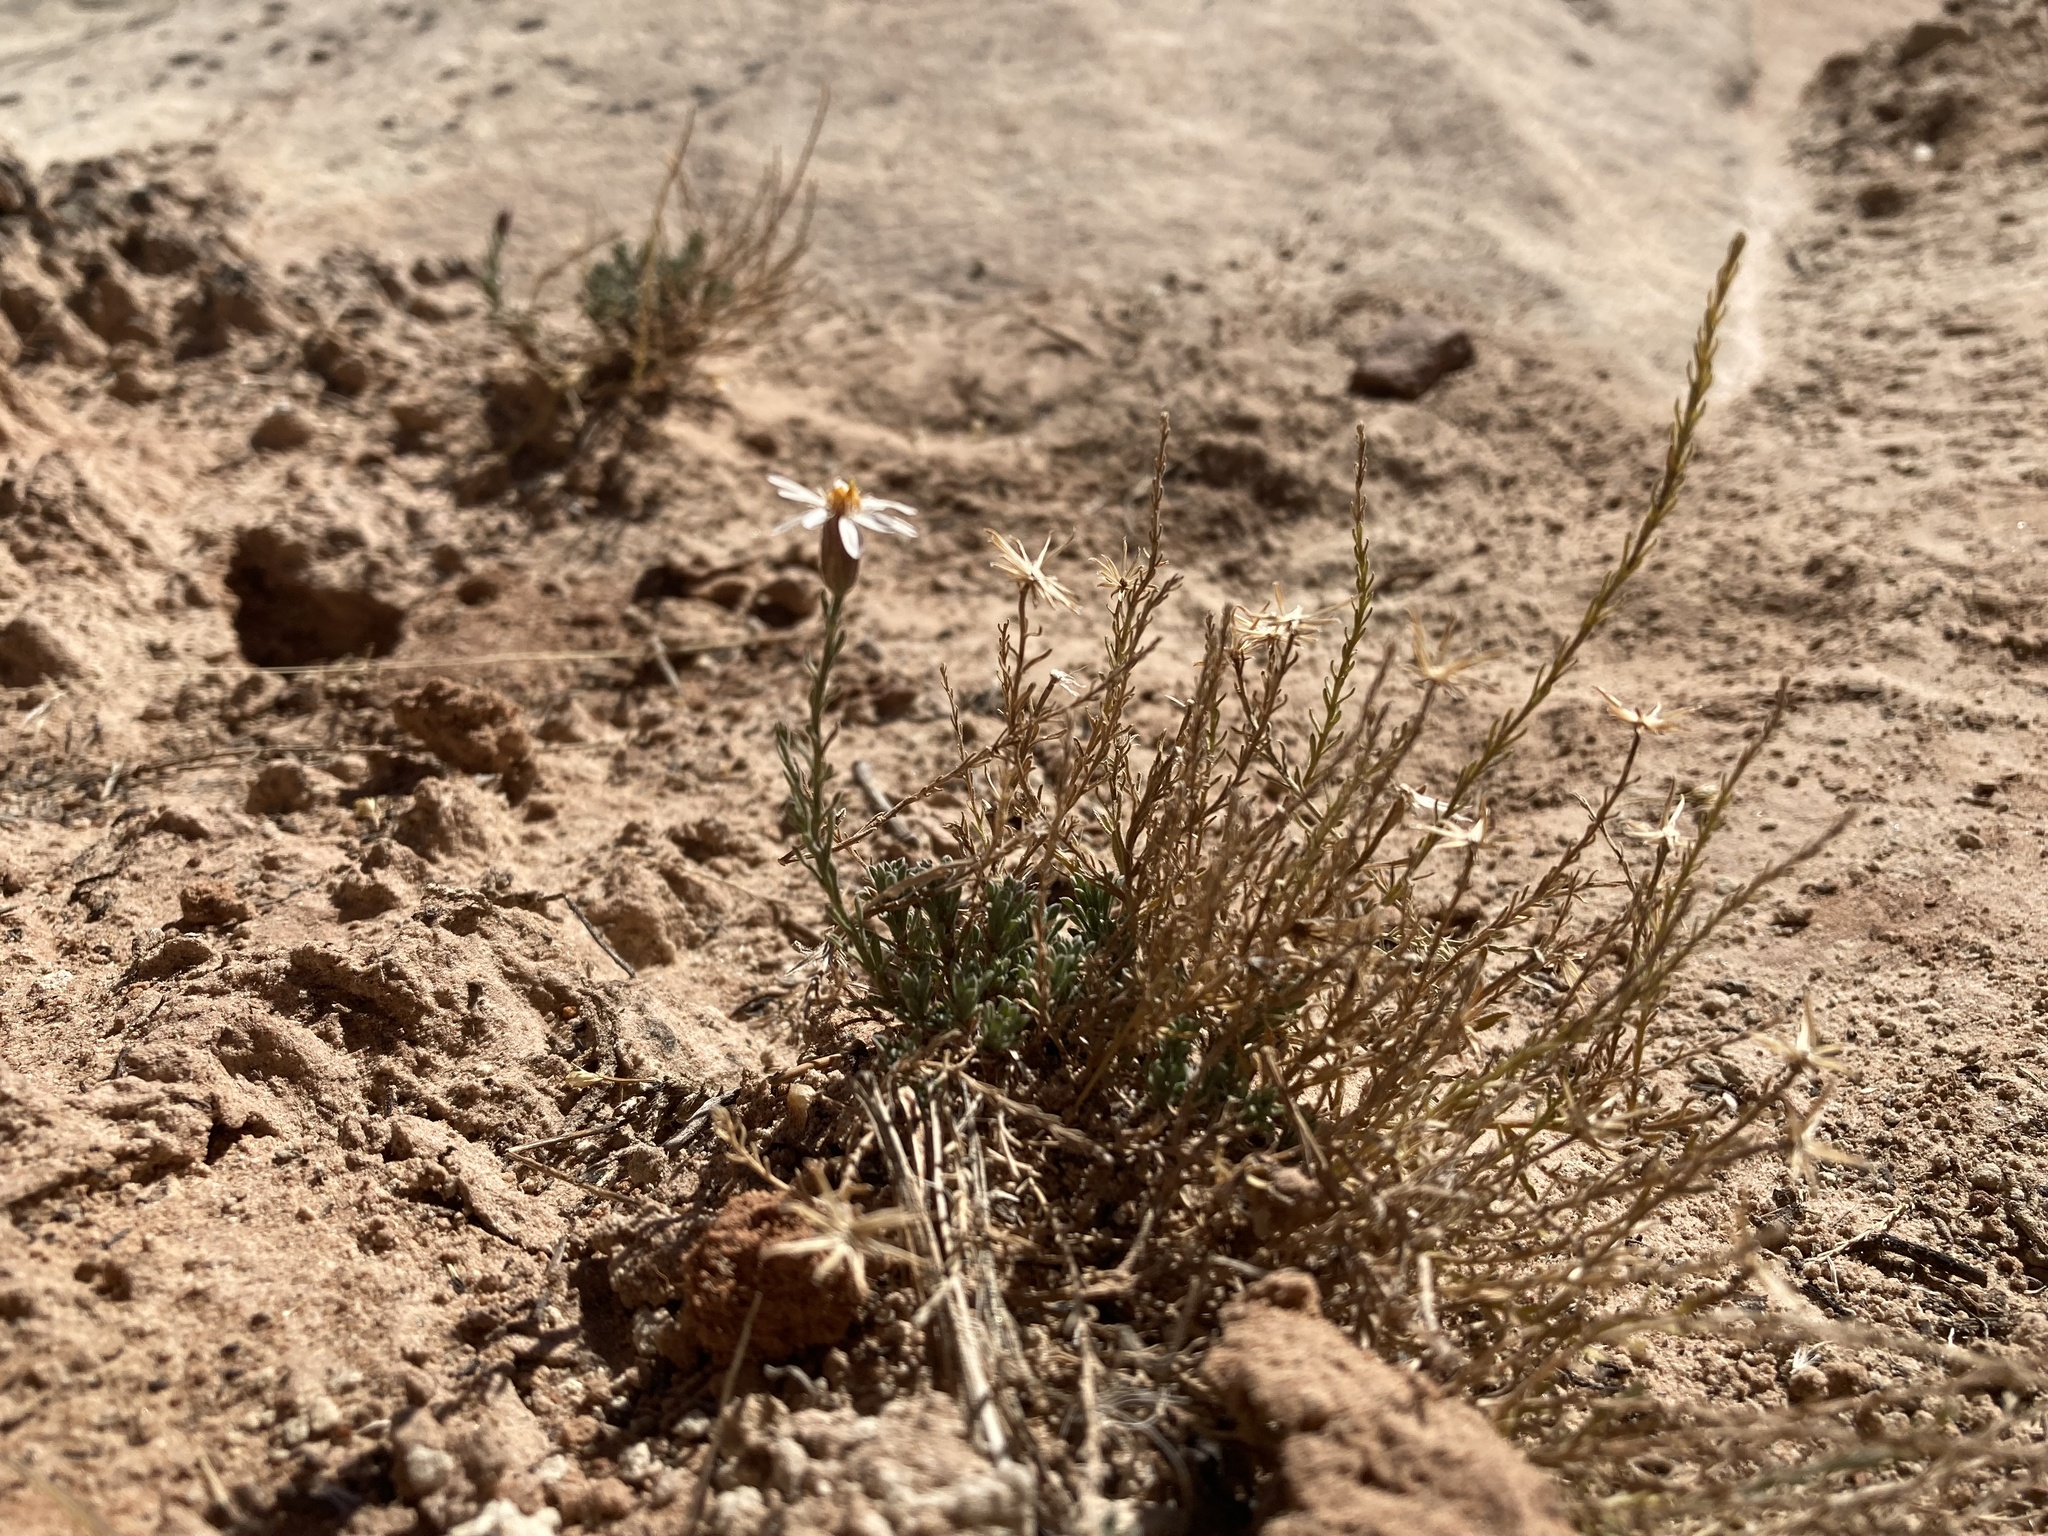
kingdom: Plantae
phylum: Tracheophyta
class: Magnoliopsida
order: Asterales
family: Asteraceae
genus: Chaetopappa
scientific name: Chaetopappa ericoides
